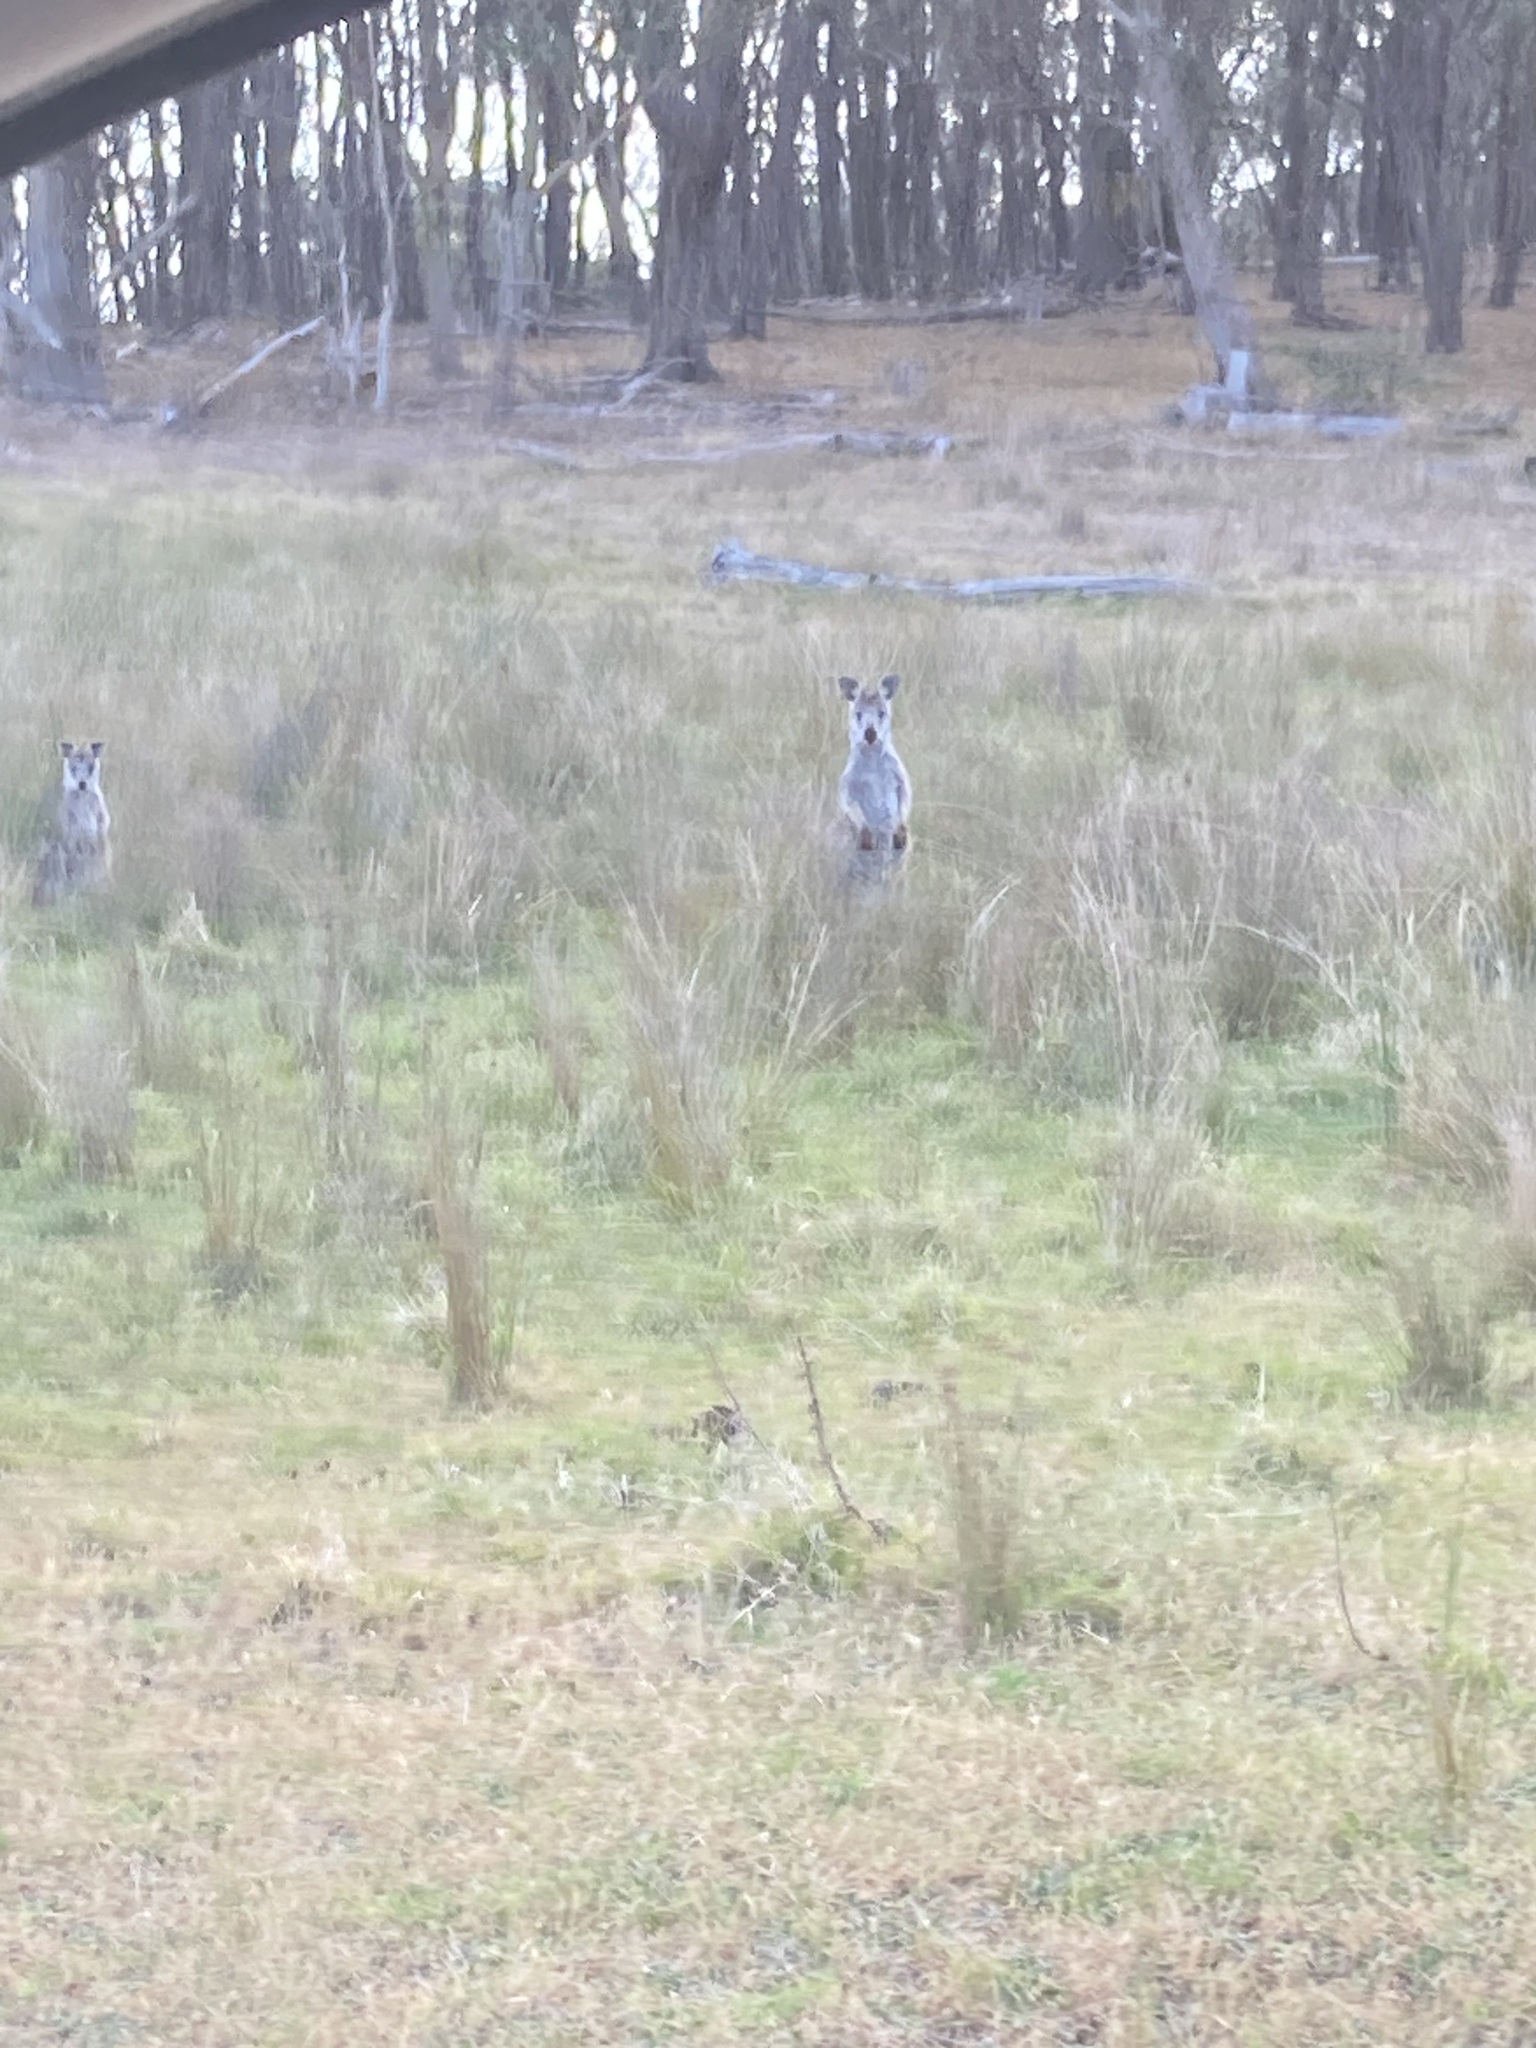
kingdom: Animalia
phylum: Chordata
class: Mammalia
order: Diprotodontia
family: Macropodidae
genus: Macropus
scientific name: Macropus robustus
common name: Eastern wallaroo
